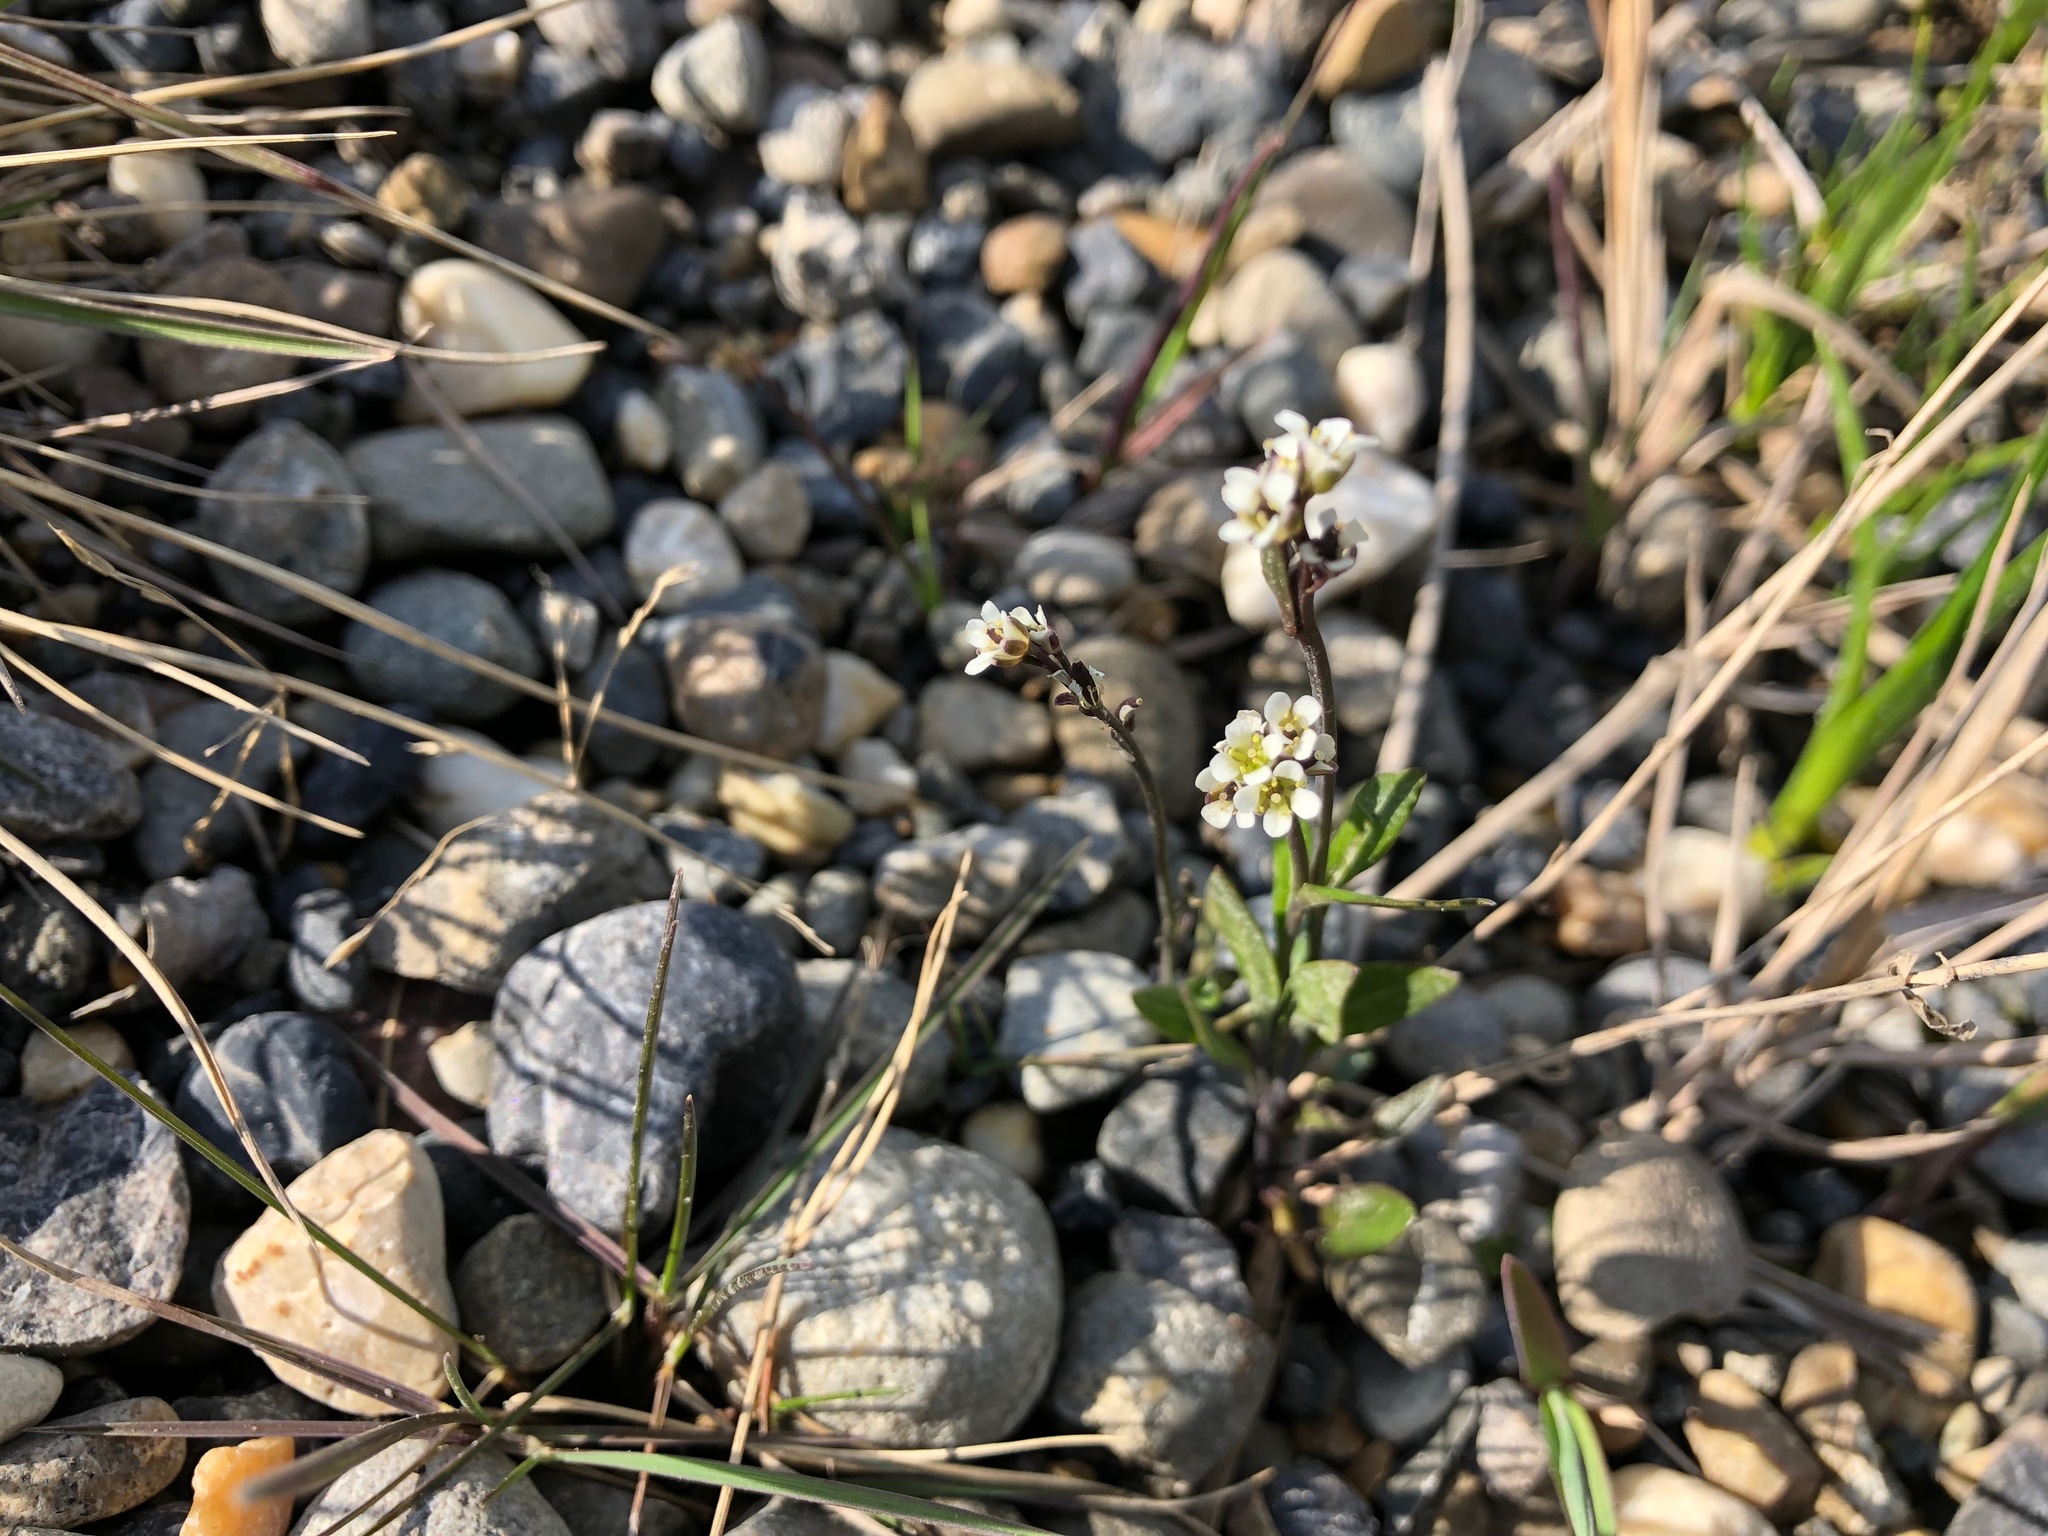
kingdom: Plantae
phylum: Tracheophyta
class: Magnoliopsida
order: Brassicales
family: Brassicaceae
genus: Braya
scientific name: Braya glabella
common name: Smooth braya
